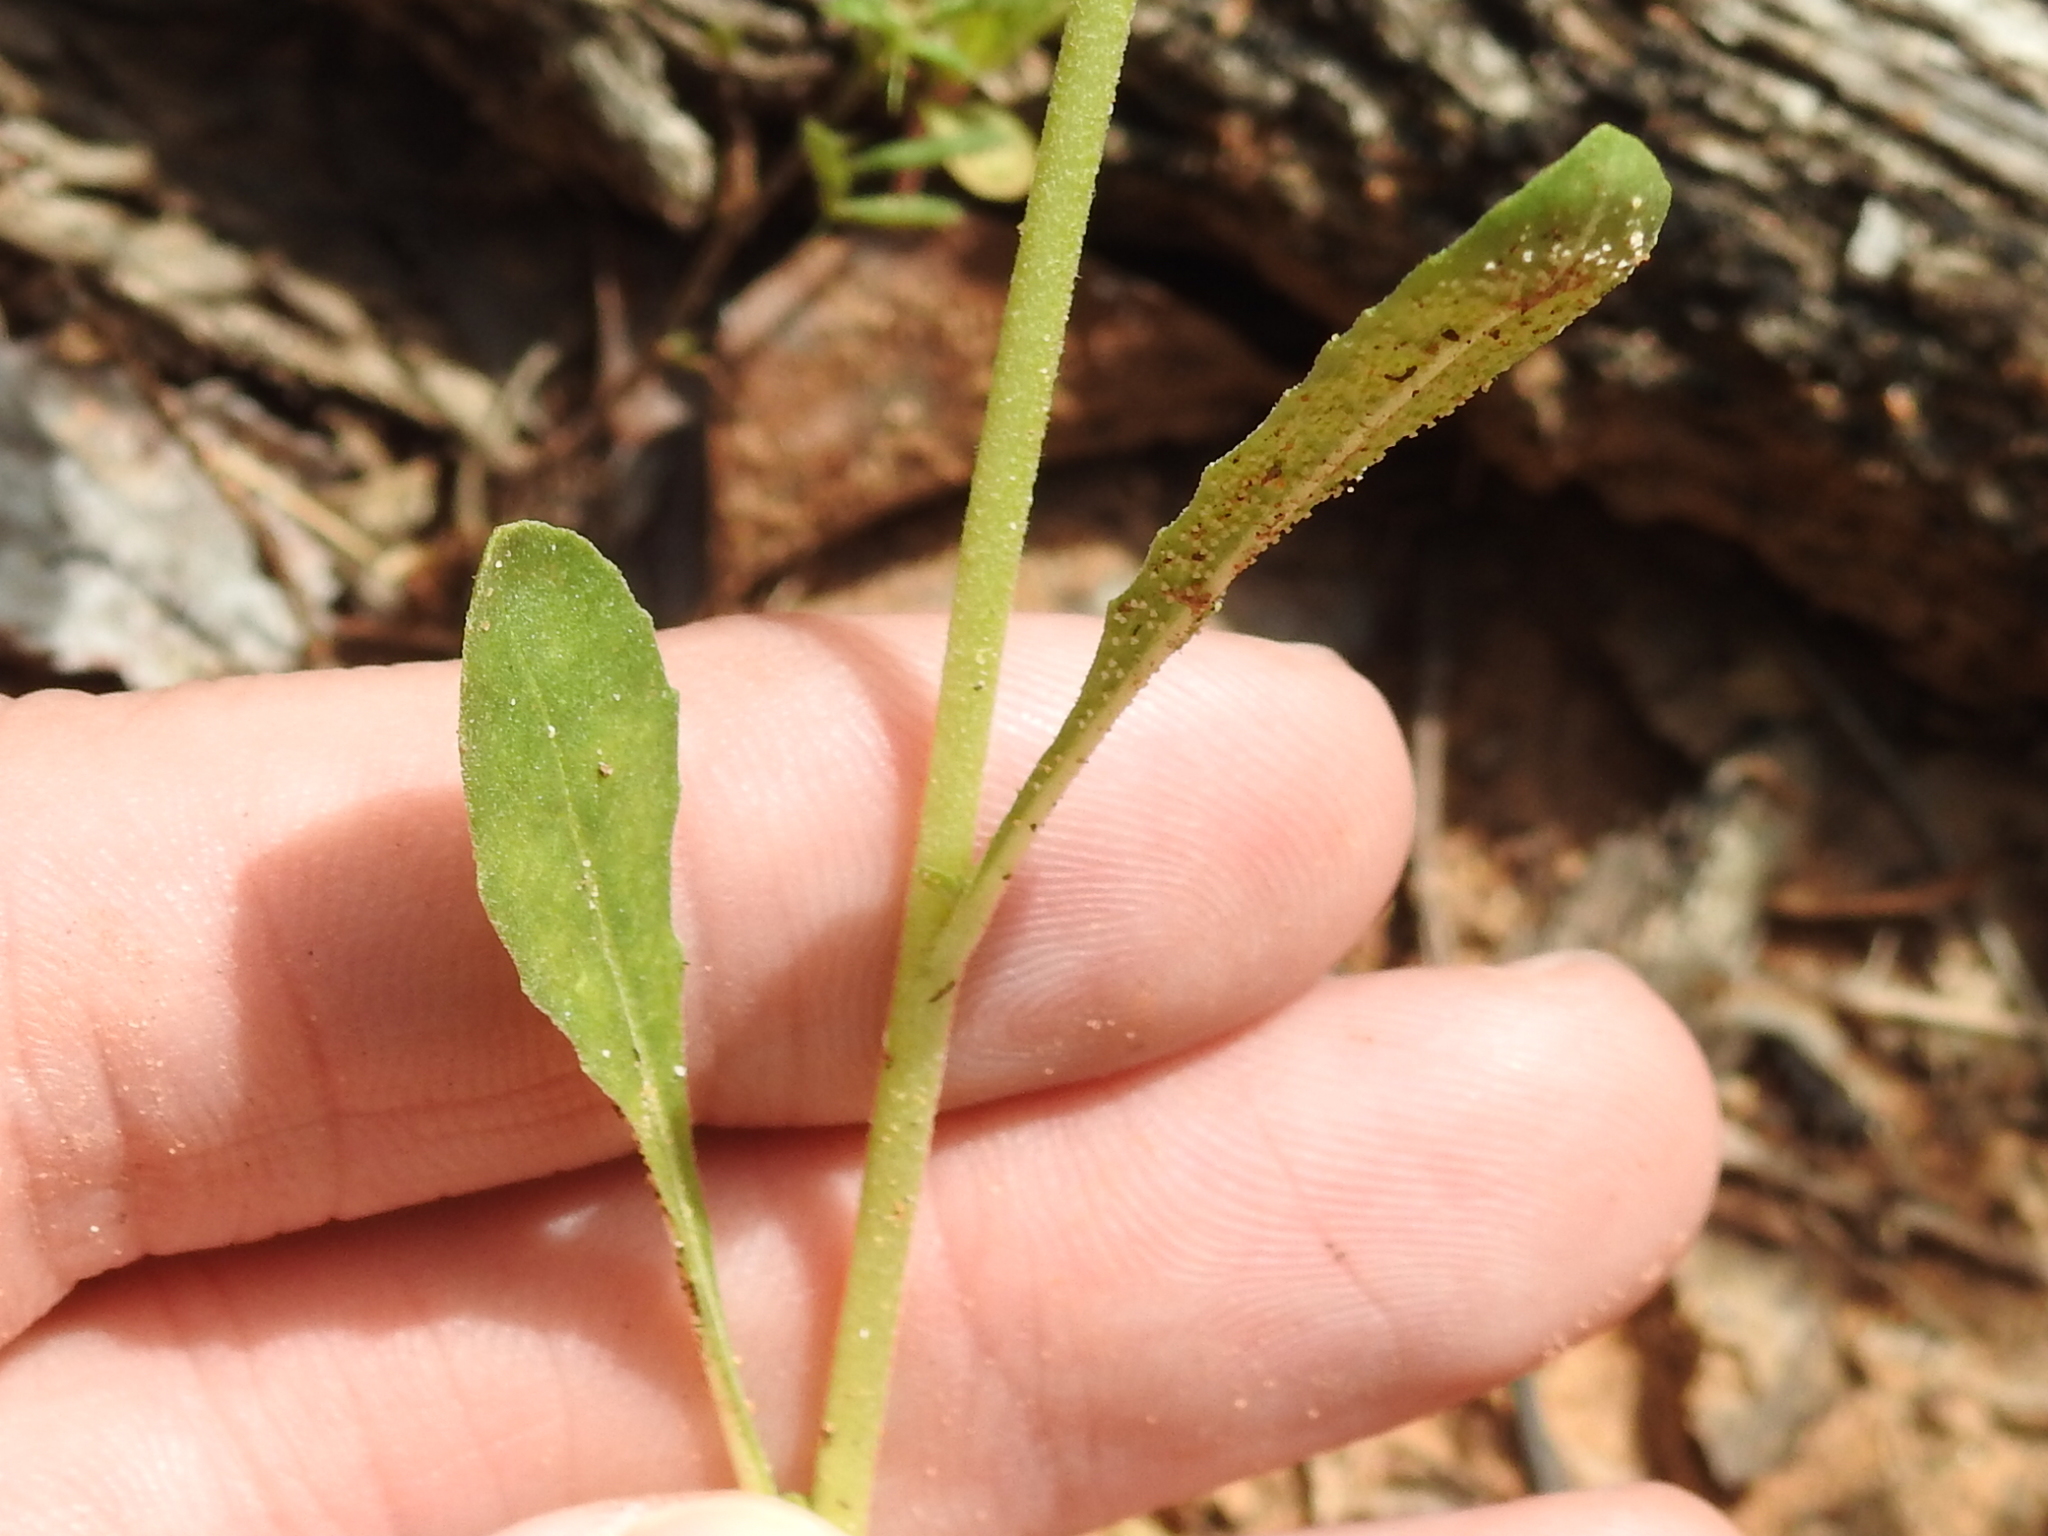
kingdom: Plantae
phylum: Tracheophyta
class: Magnoliopsida
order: Myrtales
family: Onagraceae
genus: Oenothera
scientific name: Oenothera laciniata
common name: Cut-leaved evening-primrose
